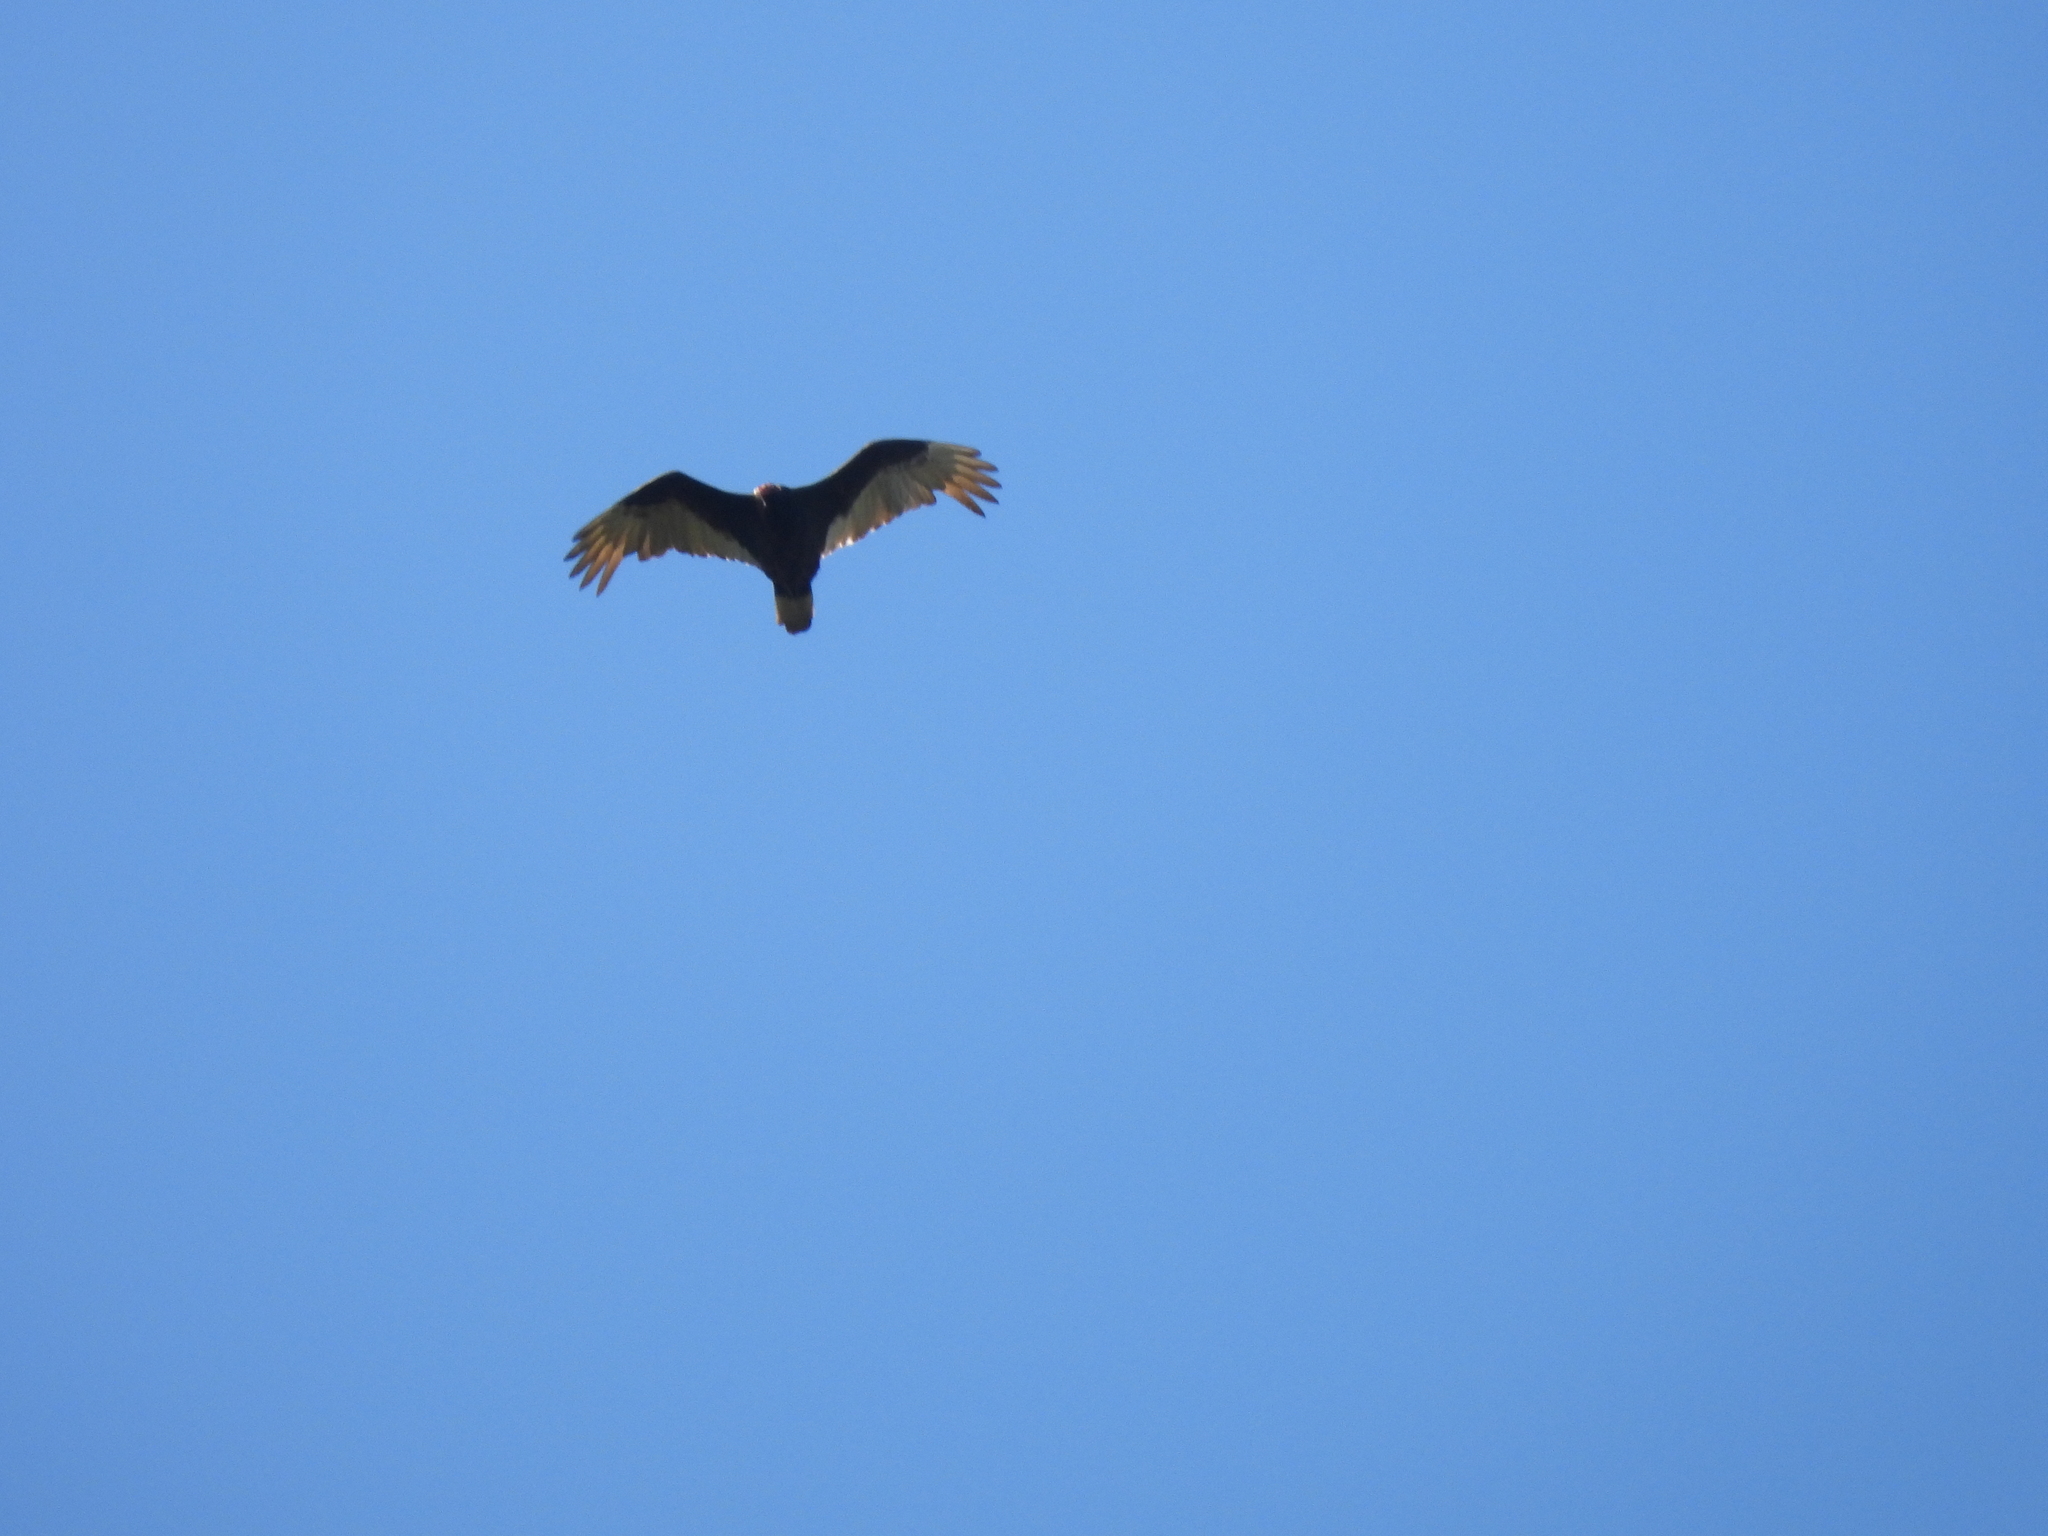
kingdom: Animalia
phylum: Chordata
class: Aves
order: Accipitriformes
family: Cathartidae
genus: Cathartes
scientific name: Cathartes aura
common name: Turkey vulture
